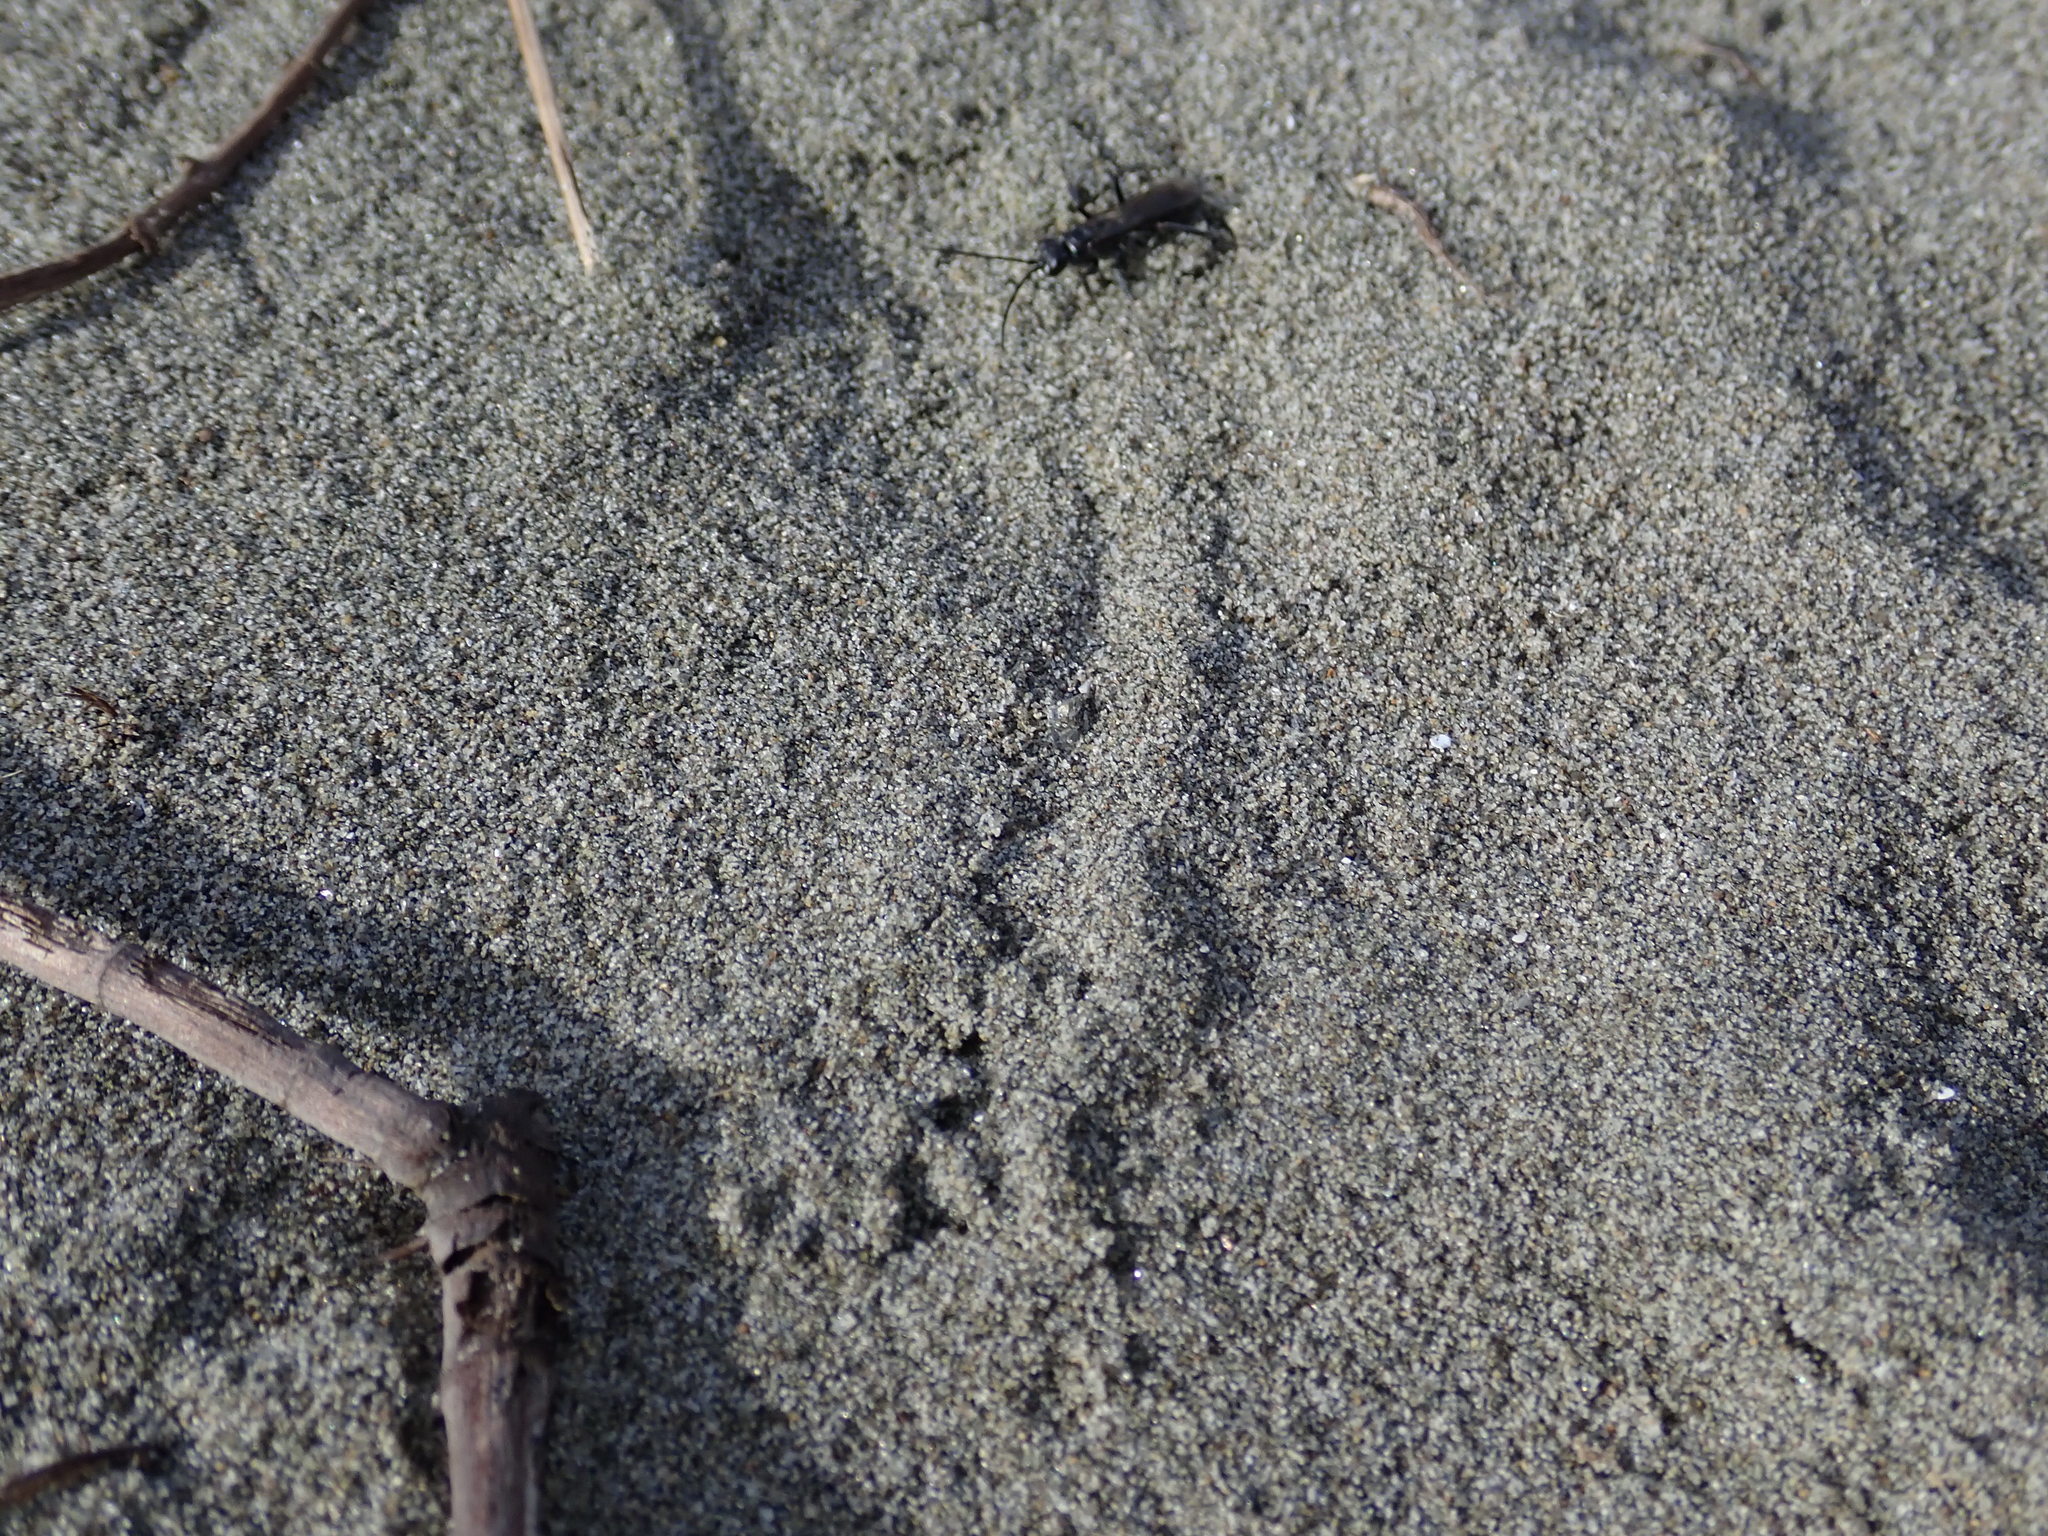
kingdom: Animalia
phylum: Arthropoda
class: Insecta
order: Hymenoptera
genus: Trichocurgus
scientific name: Trichocurgus
